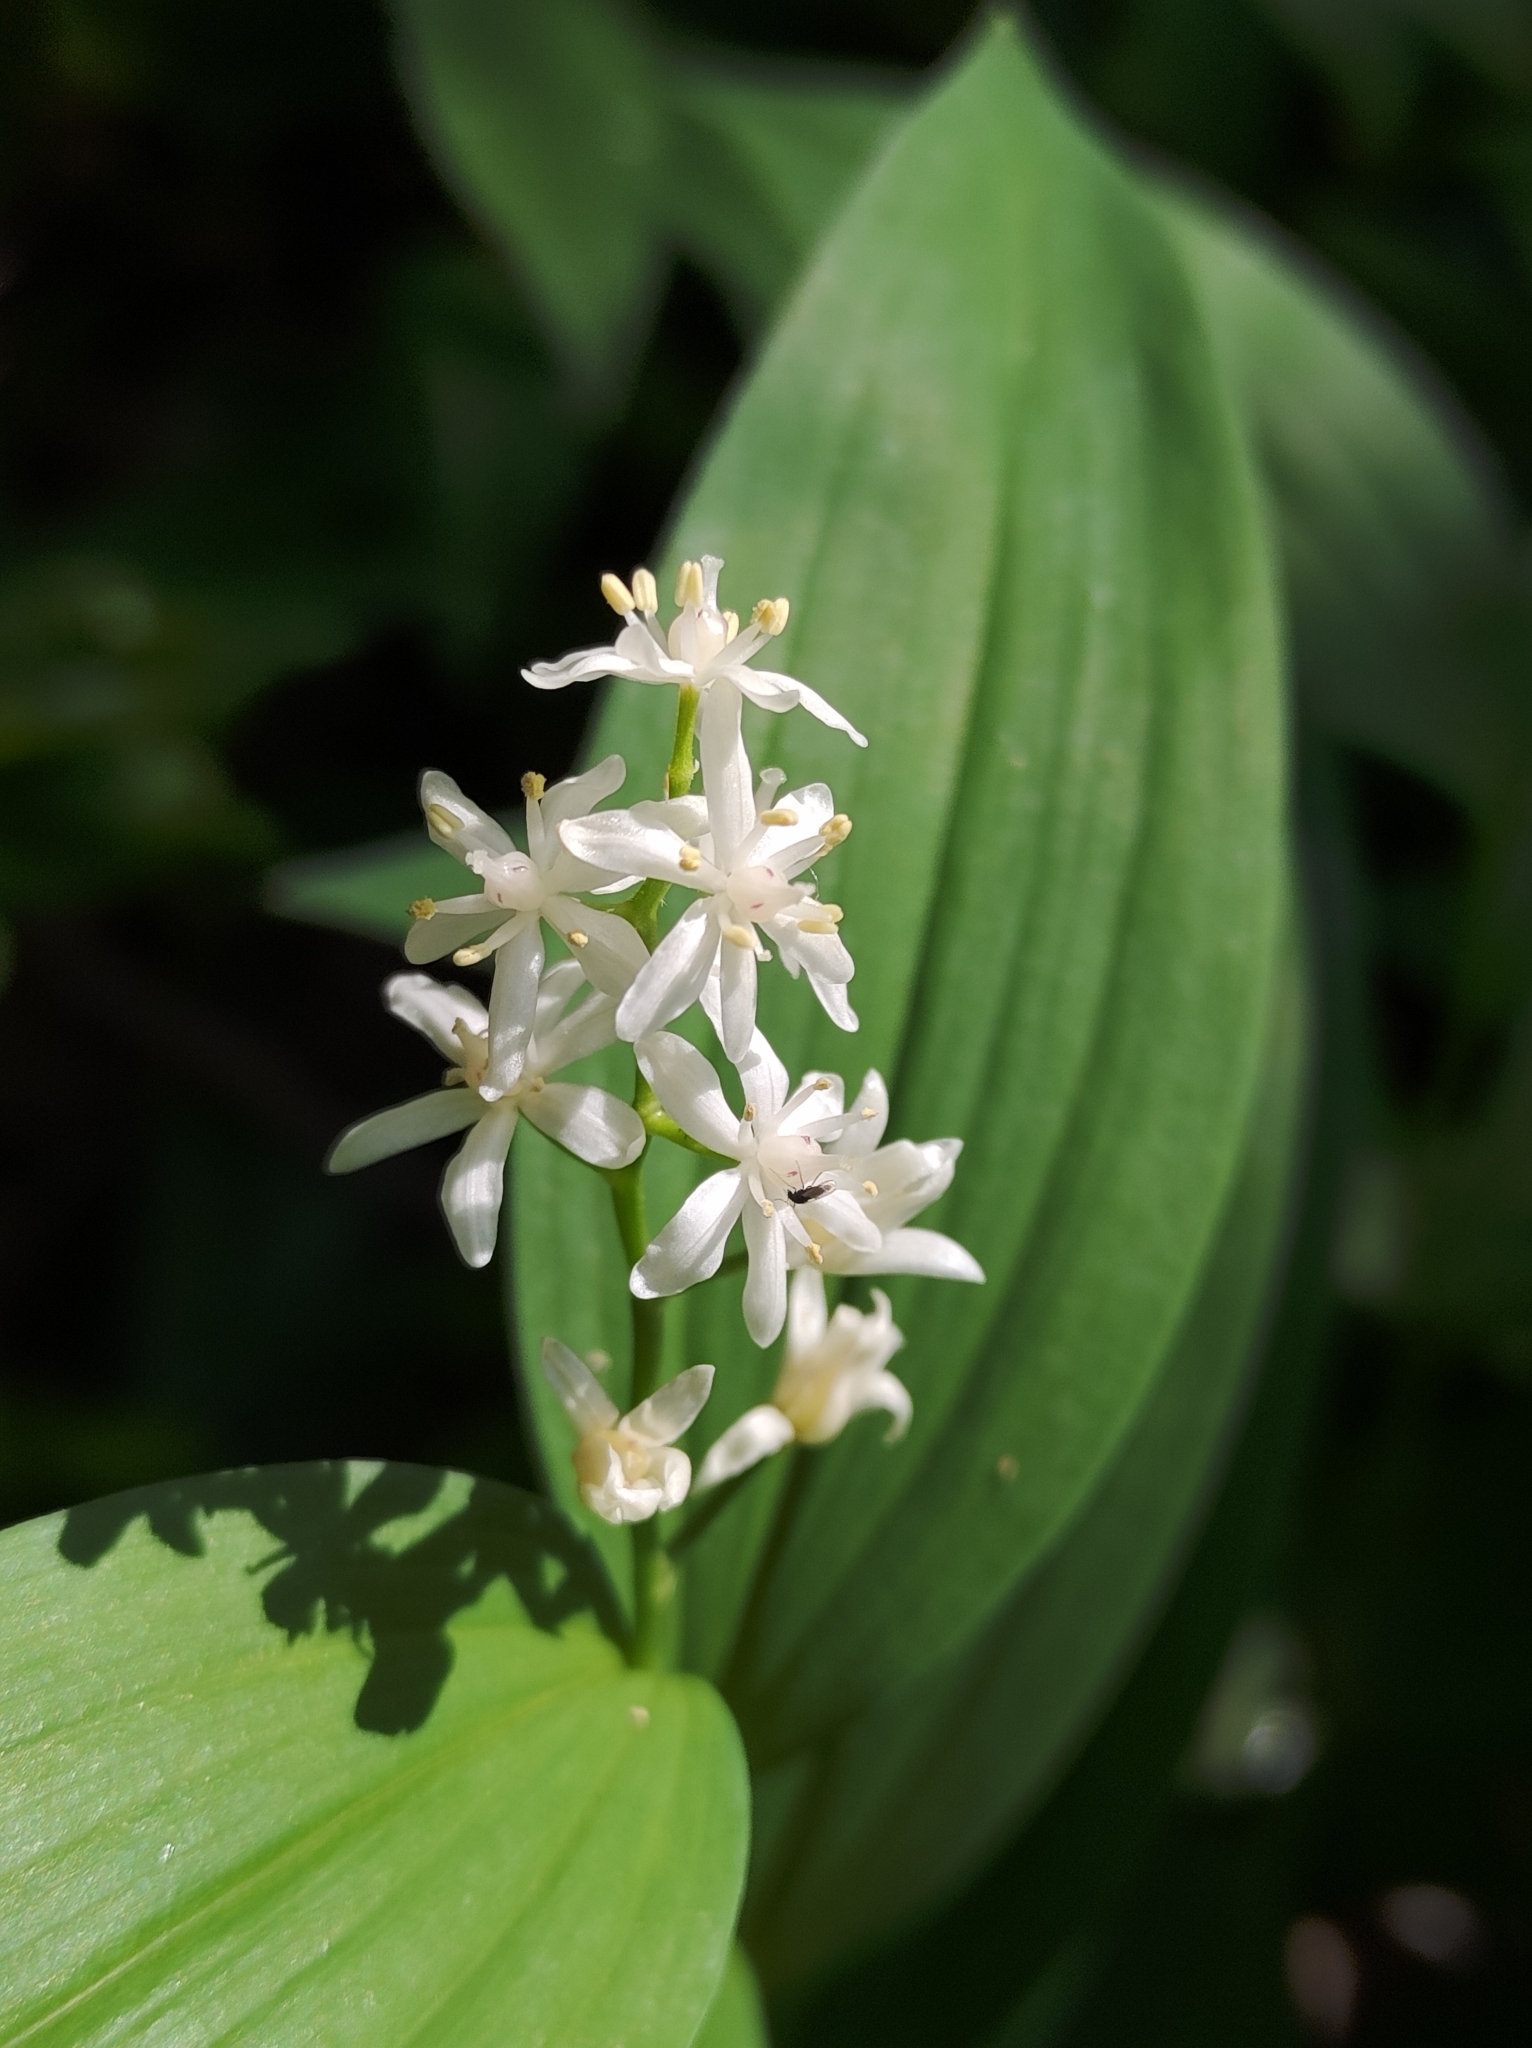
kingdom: Plantae
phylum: Tracheophyta
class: Liliopsida
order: Asparagales
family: Asparagaceae
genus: Maianthemum
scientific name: Maianthemum stellatum
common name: Little false solomon's seal
